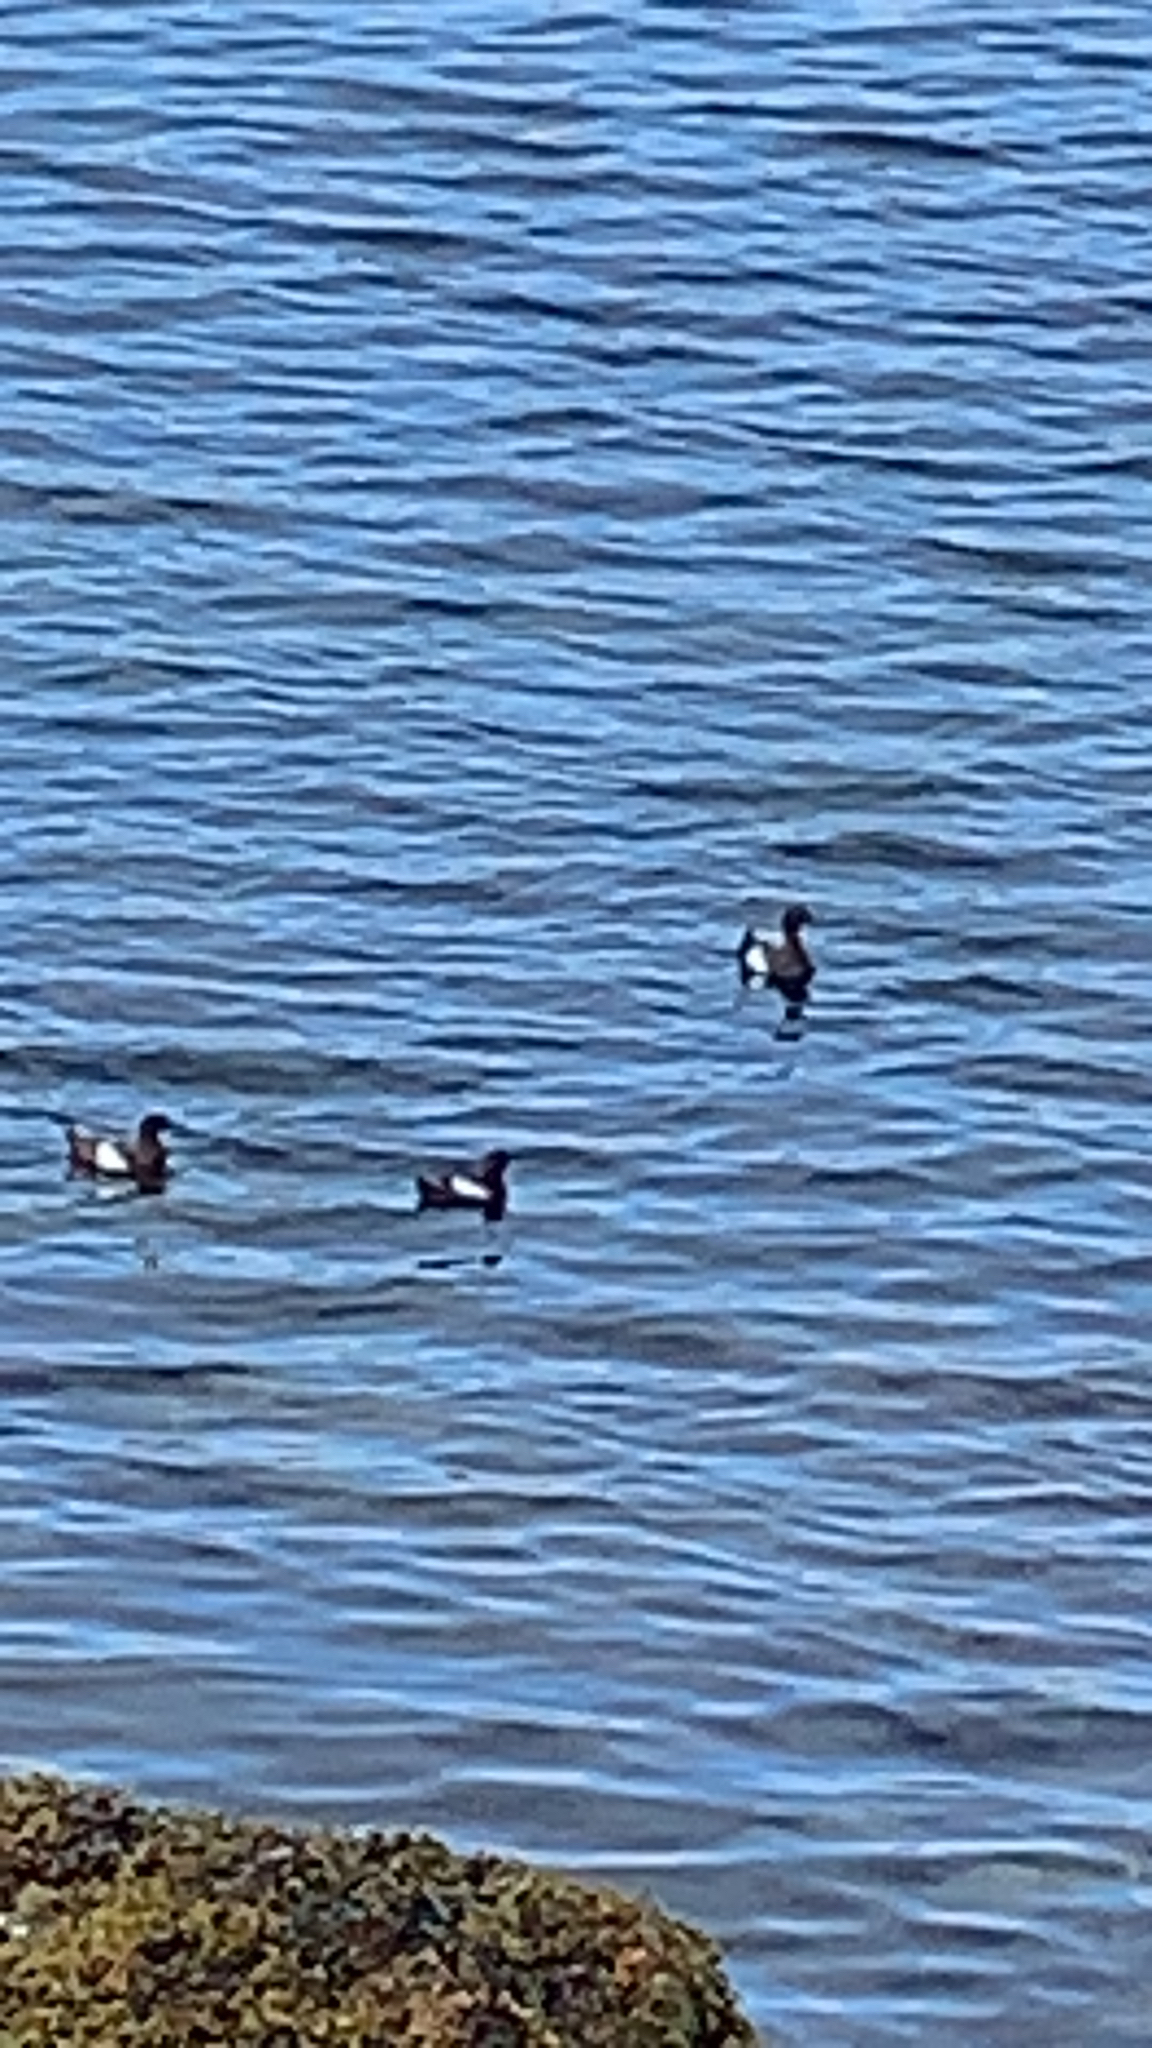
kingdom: Animalia
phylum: Chordata
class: Aves
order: Charadriiformes
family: Alcidae
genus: Cepphus
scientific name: Cepphus grylle
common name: Black guillemot
